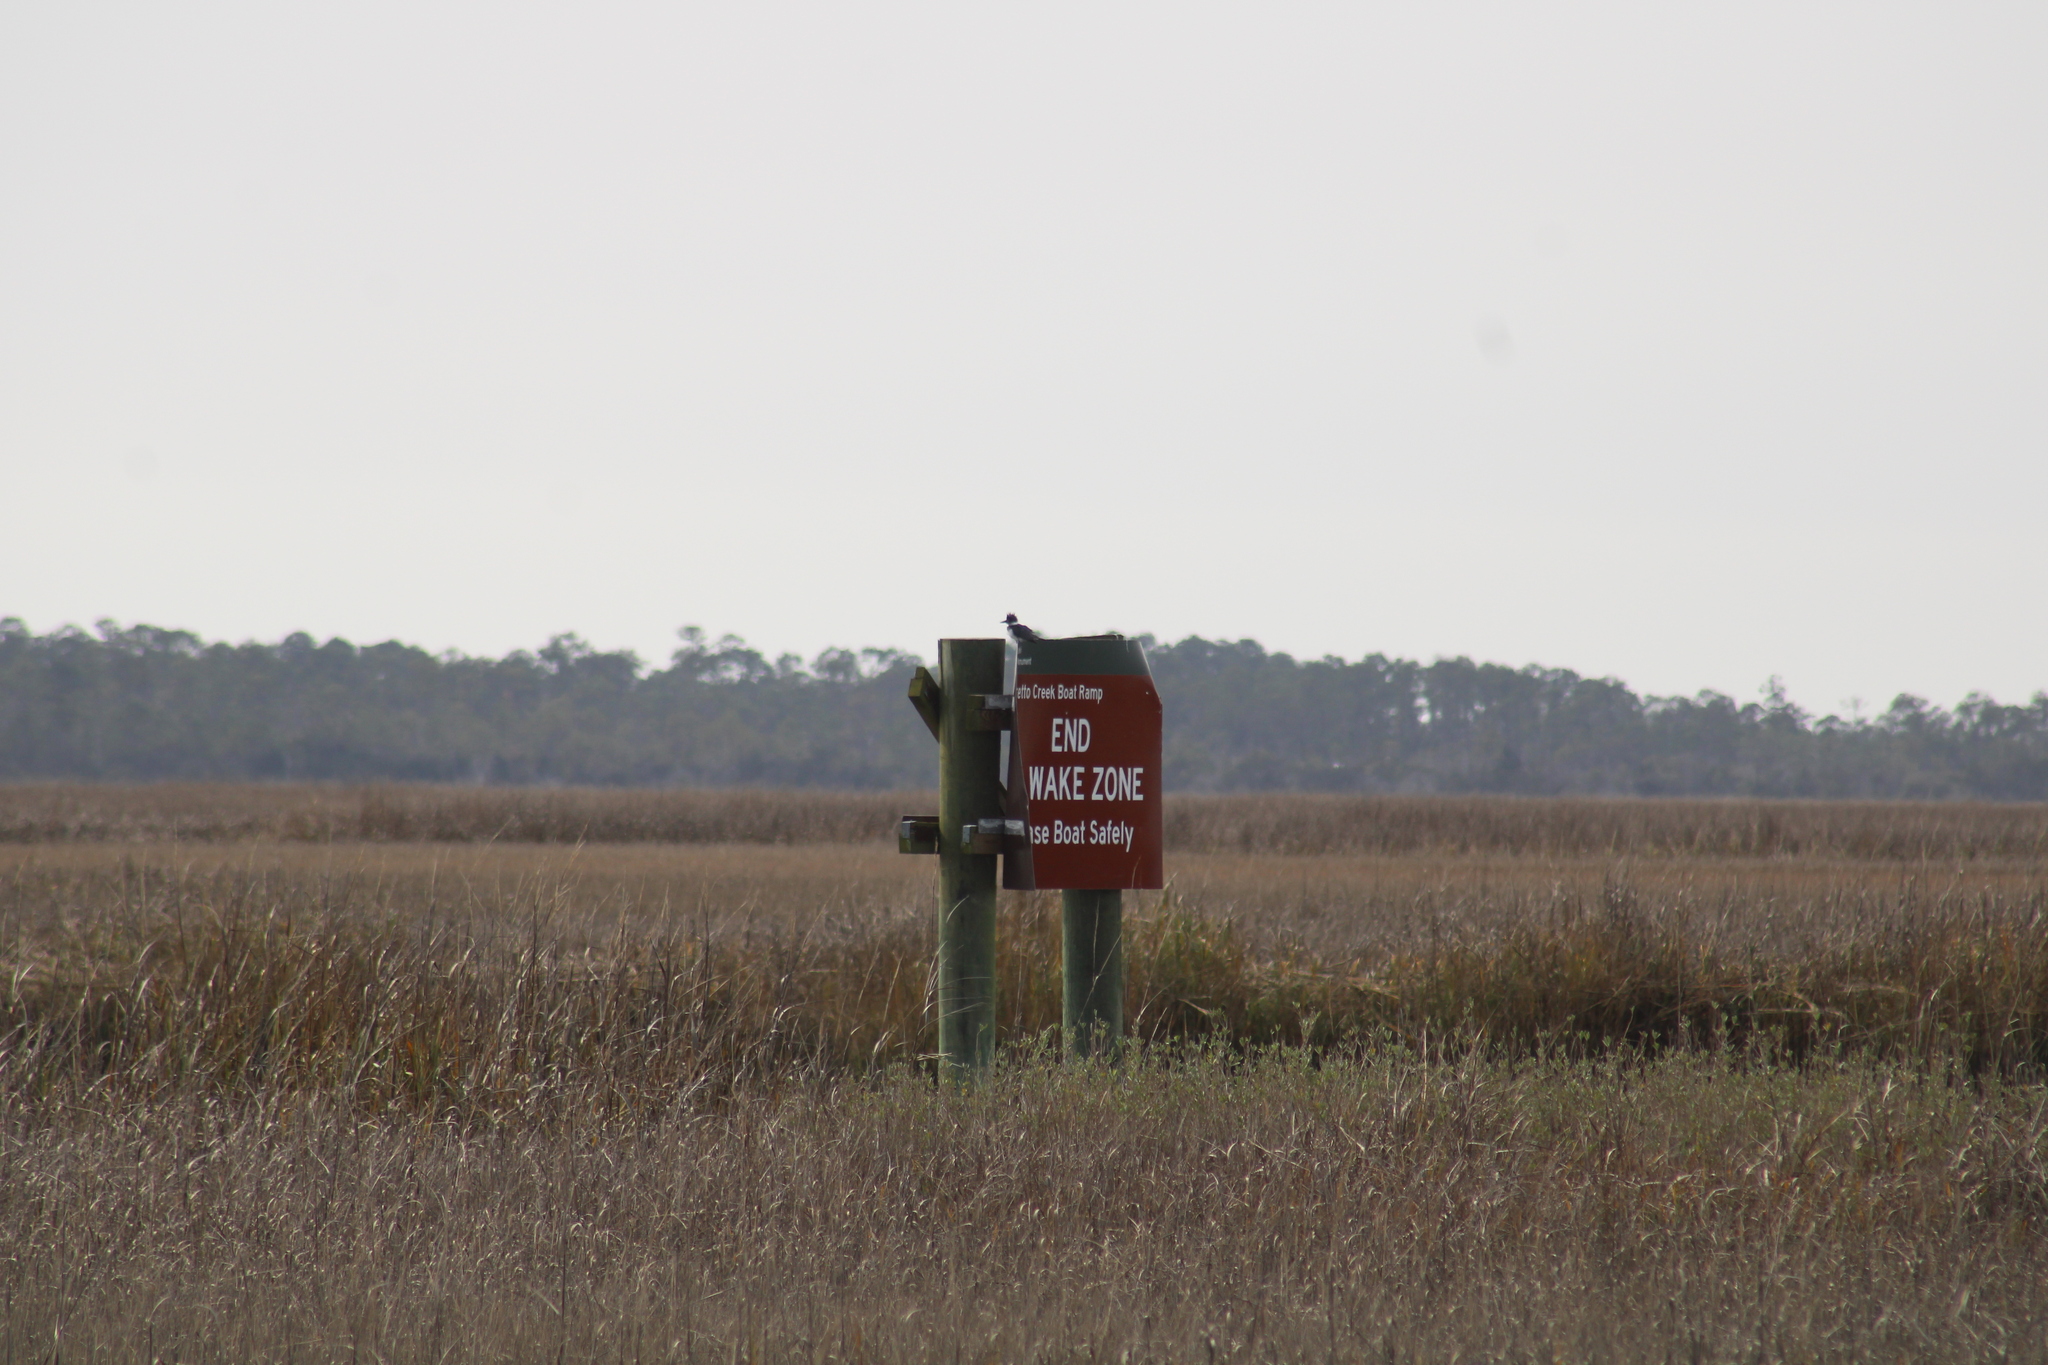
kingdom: Animalia
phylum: Chordata
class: Aves
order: Coraciiformes
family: Alcedinidae
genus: Megaceryle
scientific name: Megaceryle alcyon
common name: Belted kingfisher
